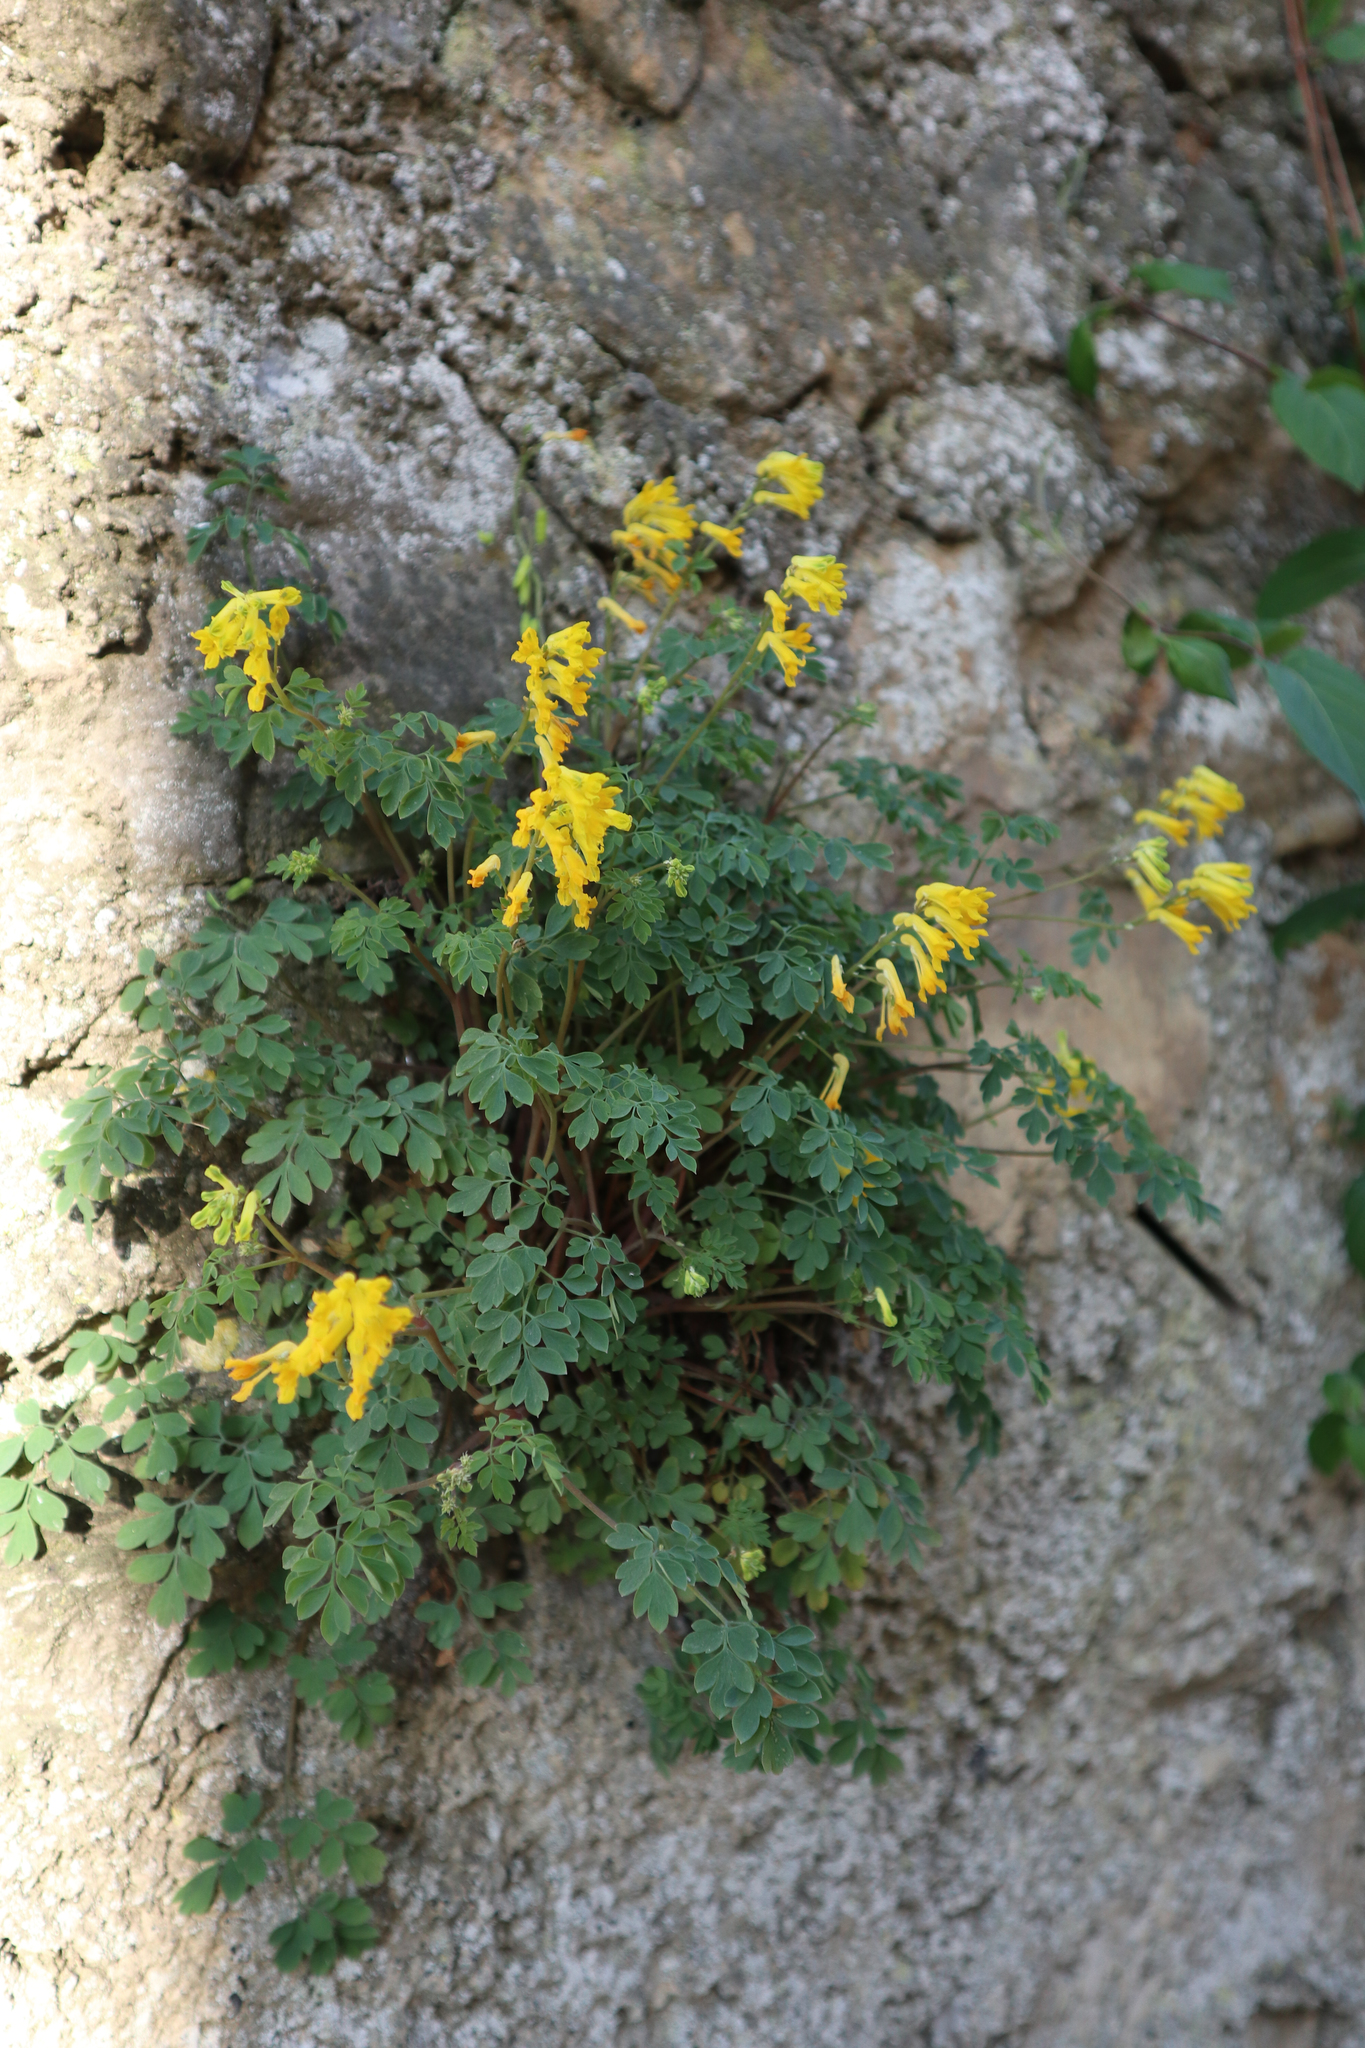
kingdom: Plantae
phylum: Tracheophyta
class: Magnoliopsida
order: Ranunculales
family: Papaveraceae
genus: Pseudofumaria
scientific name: Pseudofumaria lutea
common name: Yellow corydalis
